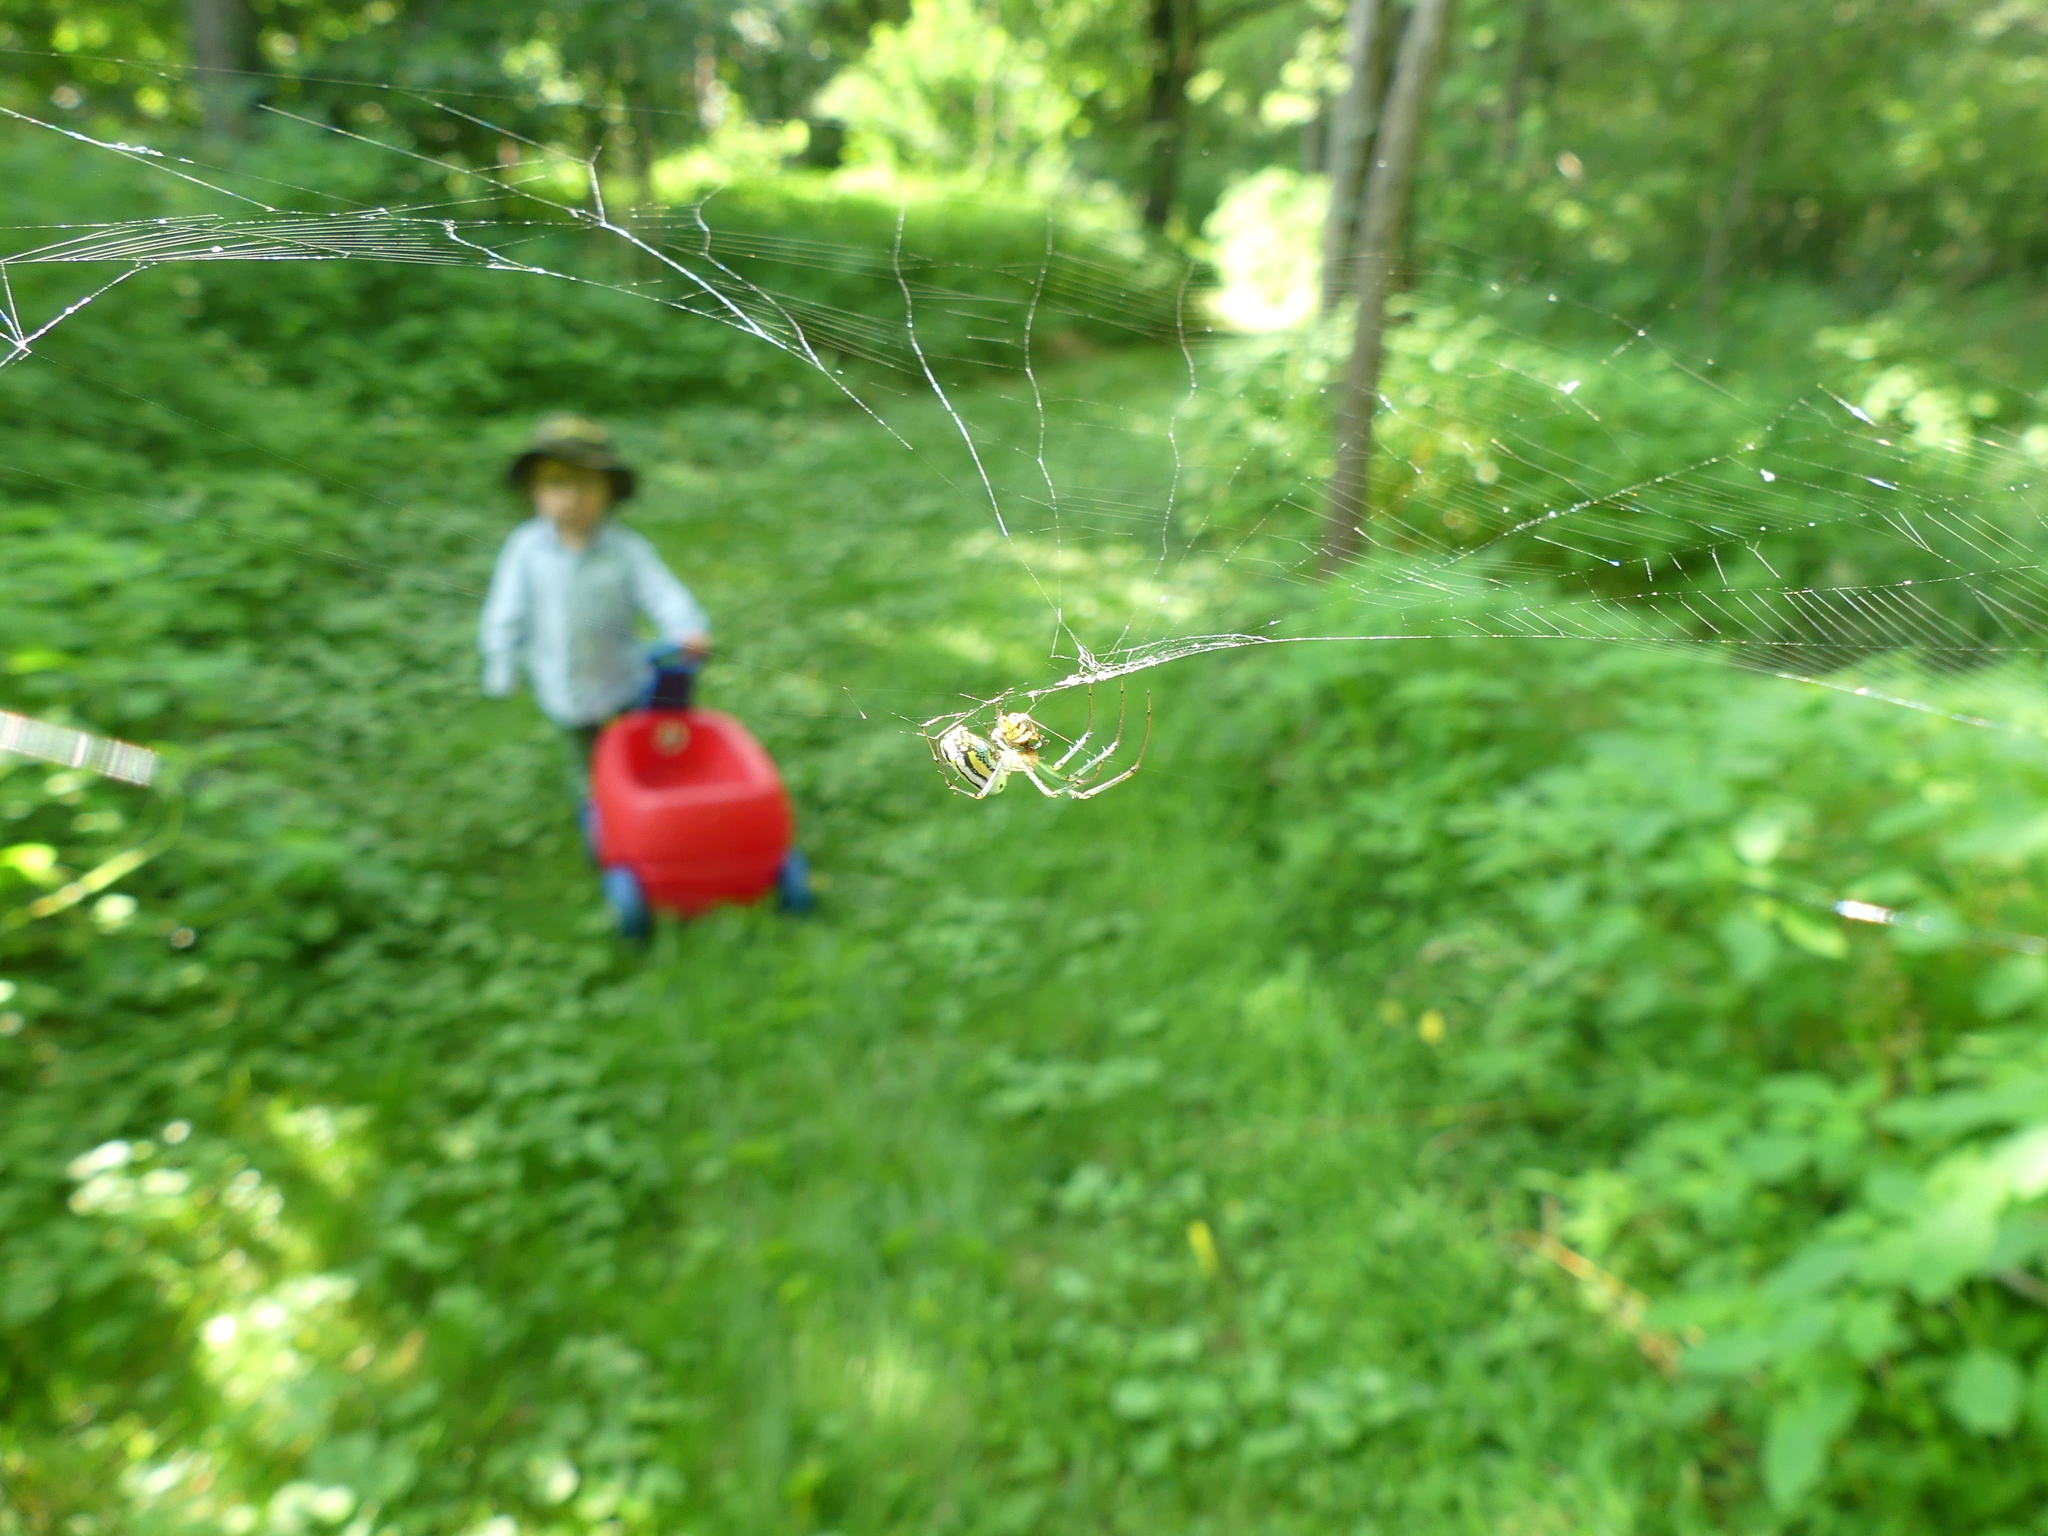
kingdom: Animalia
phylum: Arthropoda
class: Arachnida
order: Araneae
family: Tetragnathidae
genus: Leucauge
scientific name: Leucauge venusta
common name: Longjawed orb weavers
